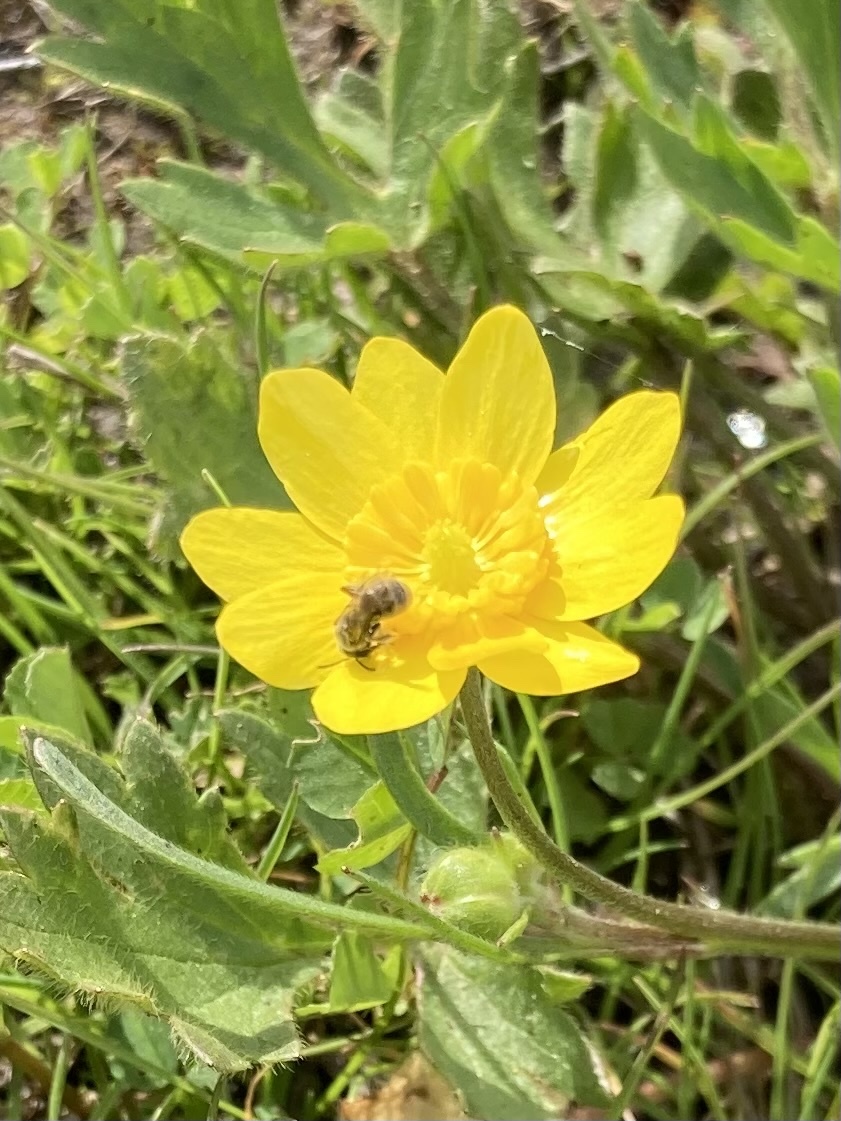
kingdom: Plantae
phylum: Tracheophyta
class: Magnoliopsida
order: Ranunculales
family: Ranunculaceae
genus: Ranunculus
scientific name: Ranunculus californicus
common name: California buttercup
